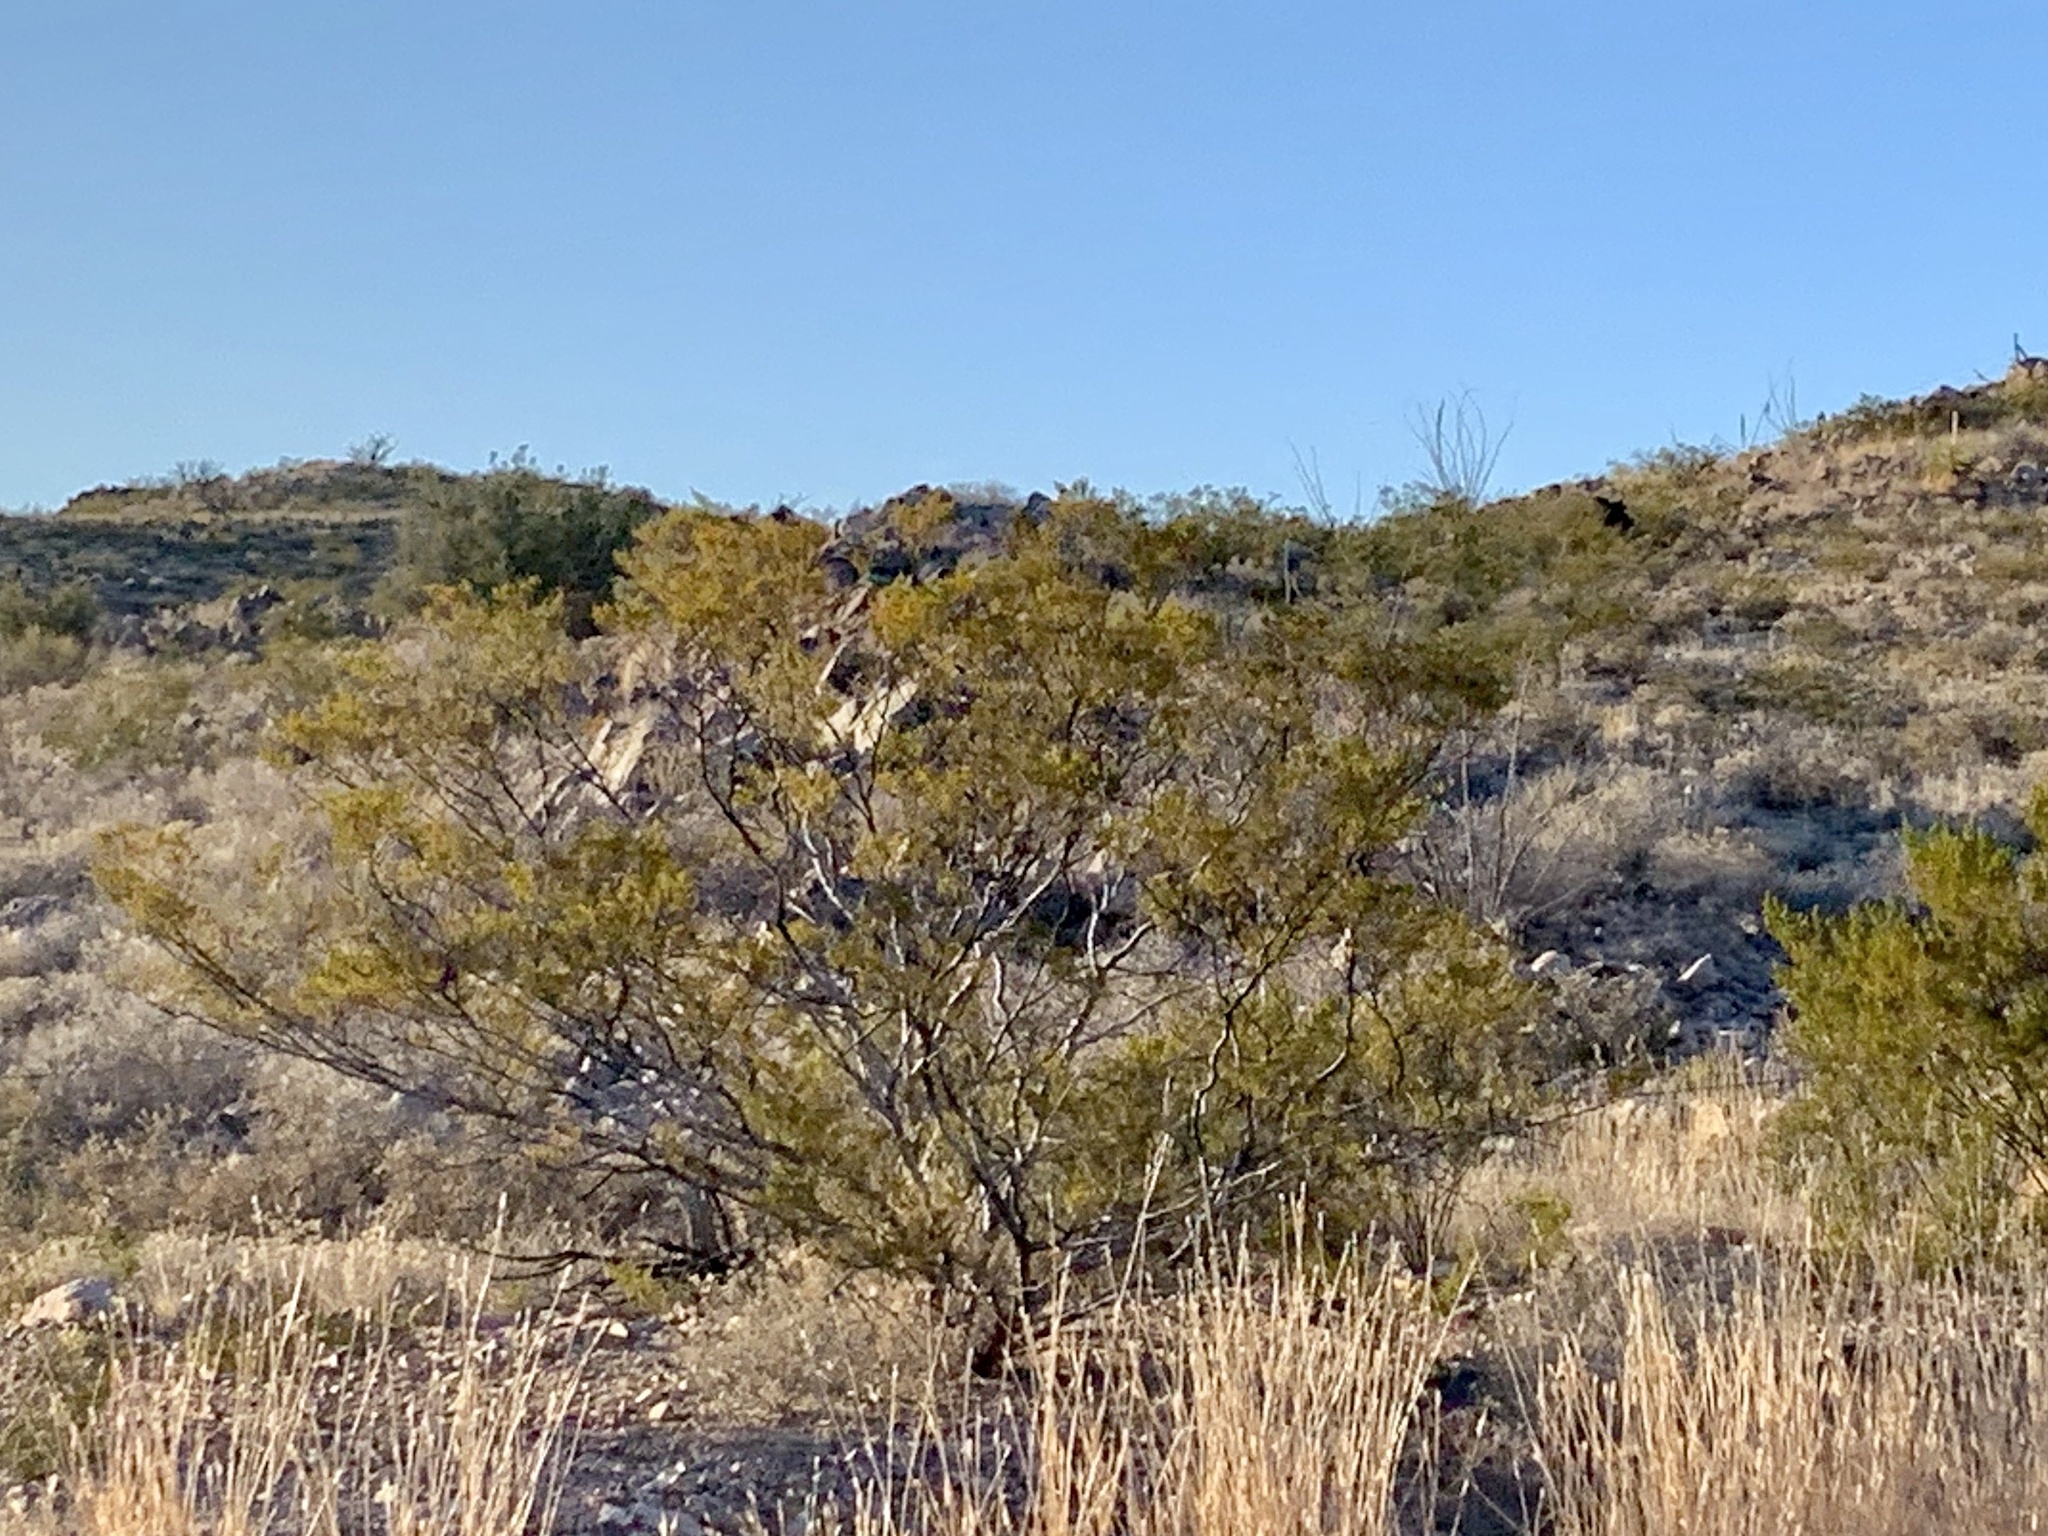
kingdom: Plantae
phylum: Tracheophyta
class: Magnoliopsida
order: Zygophyllales
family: Zygophyllaceae
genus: Larrea
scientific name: Larrea tridentata
